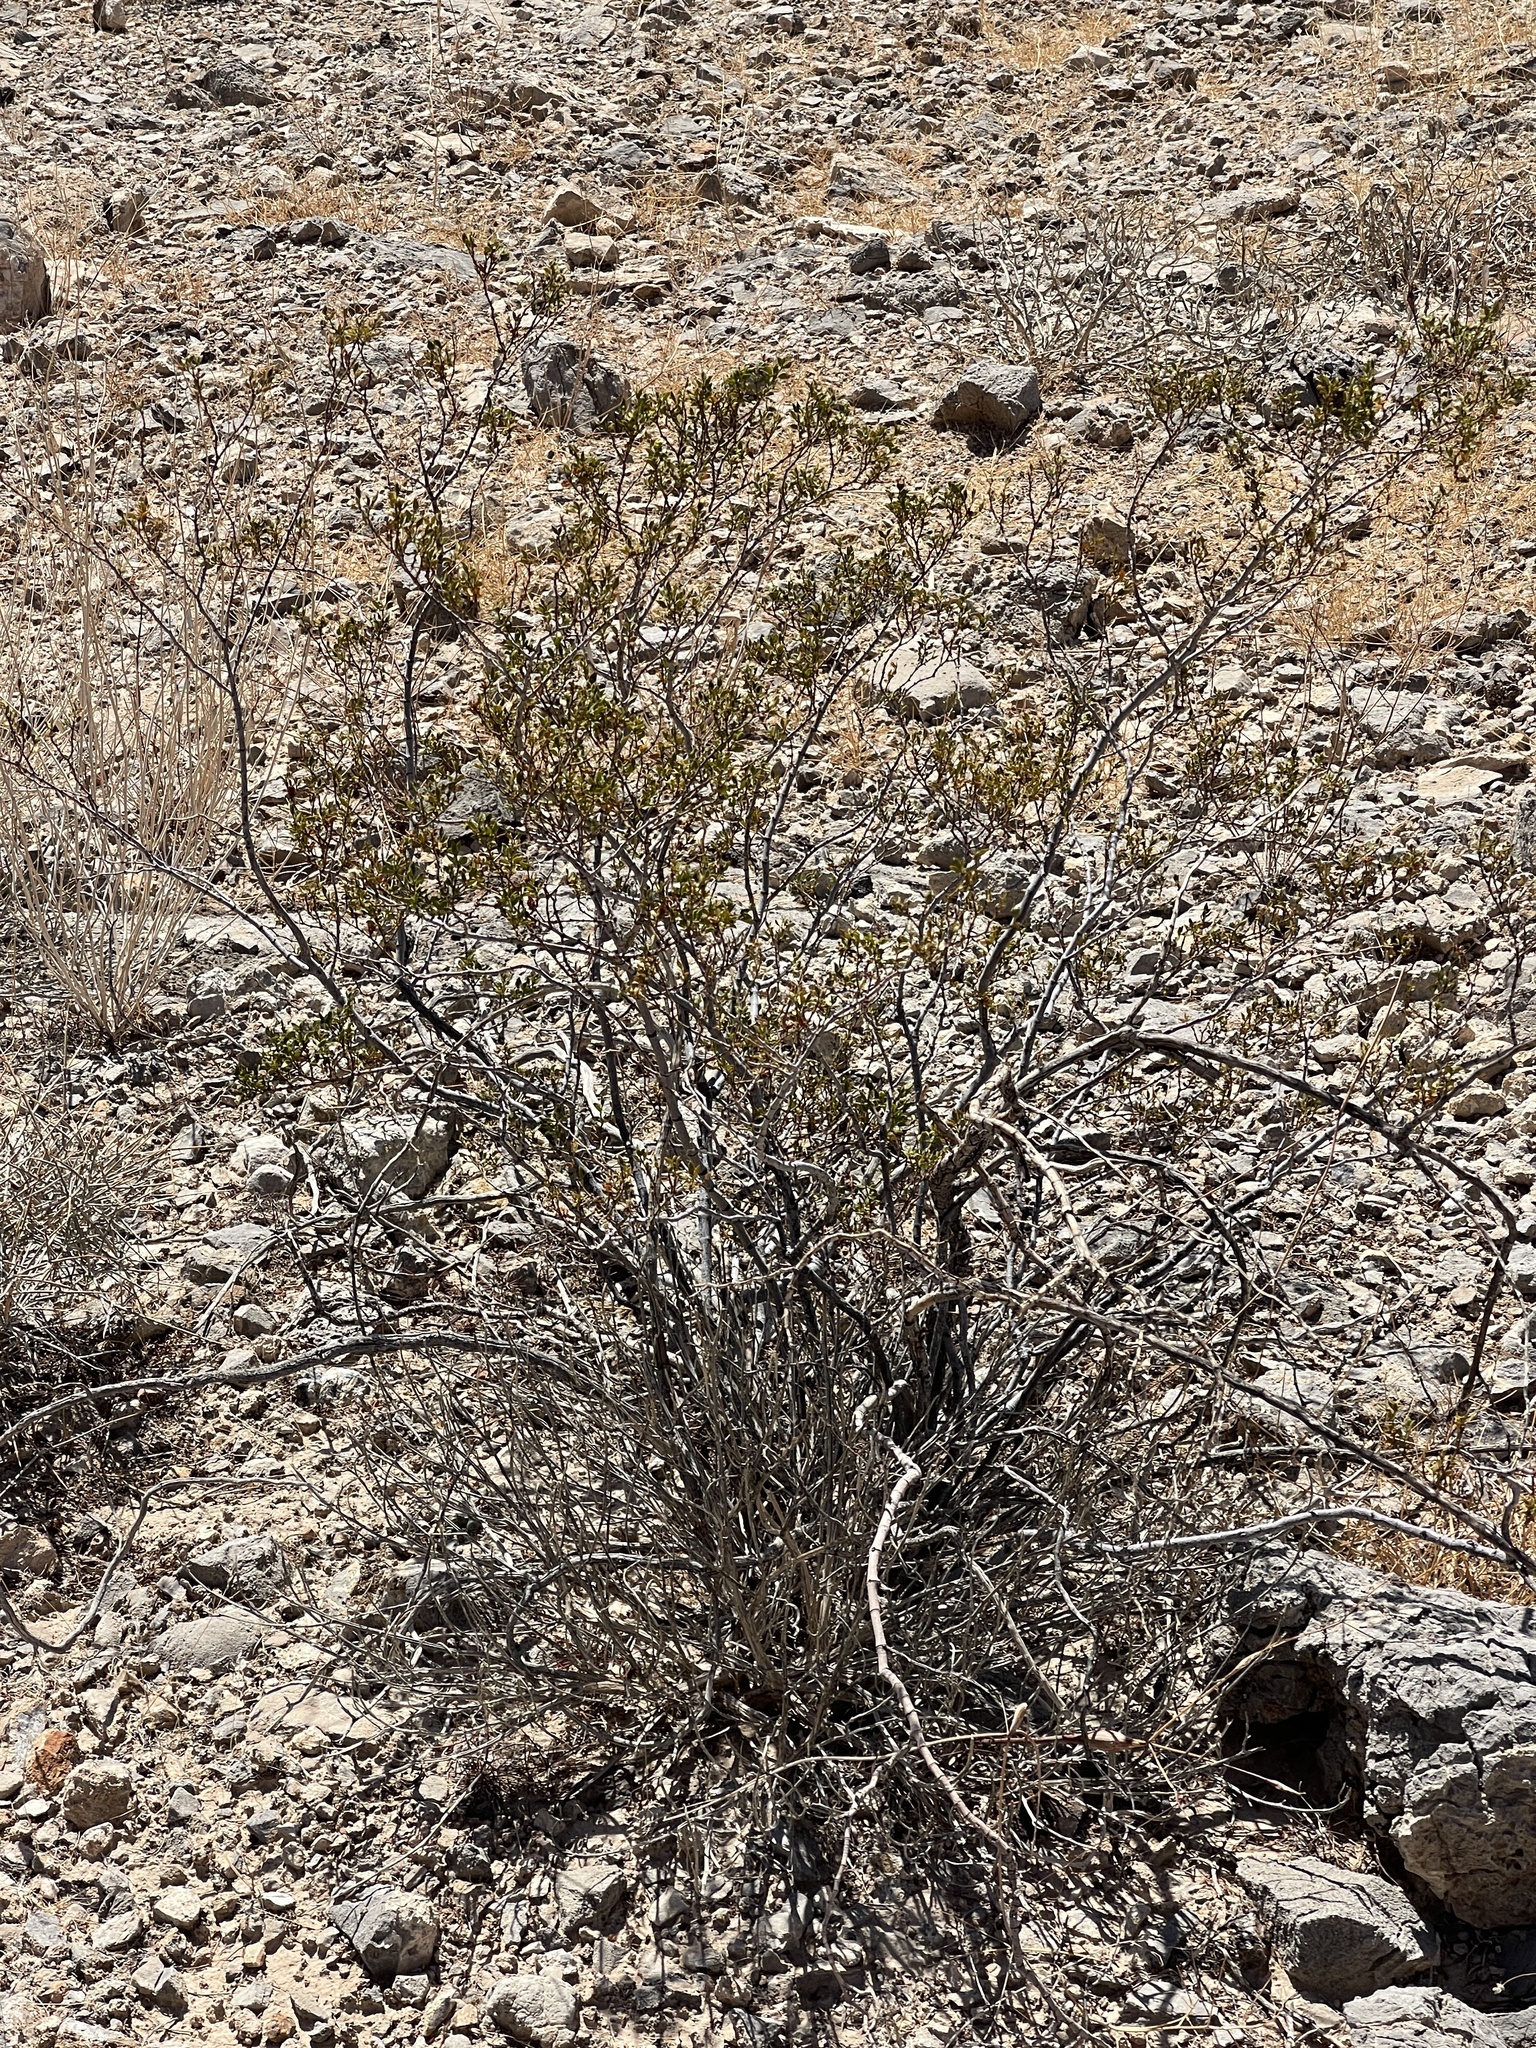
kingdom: Plantae
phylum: Tracheophyta
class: Magnoliopsida
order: Zygophyllales
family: Zygophyllaceae
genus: Larrea
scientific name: Larrea tridentata
